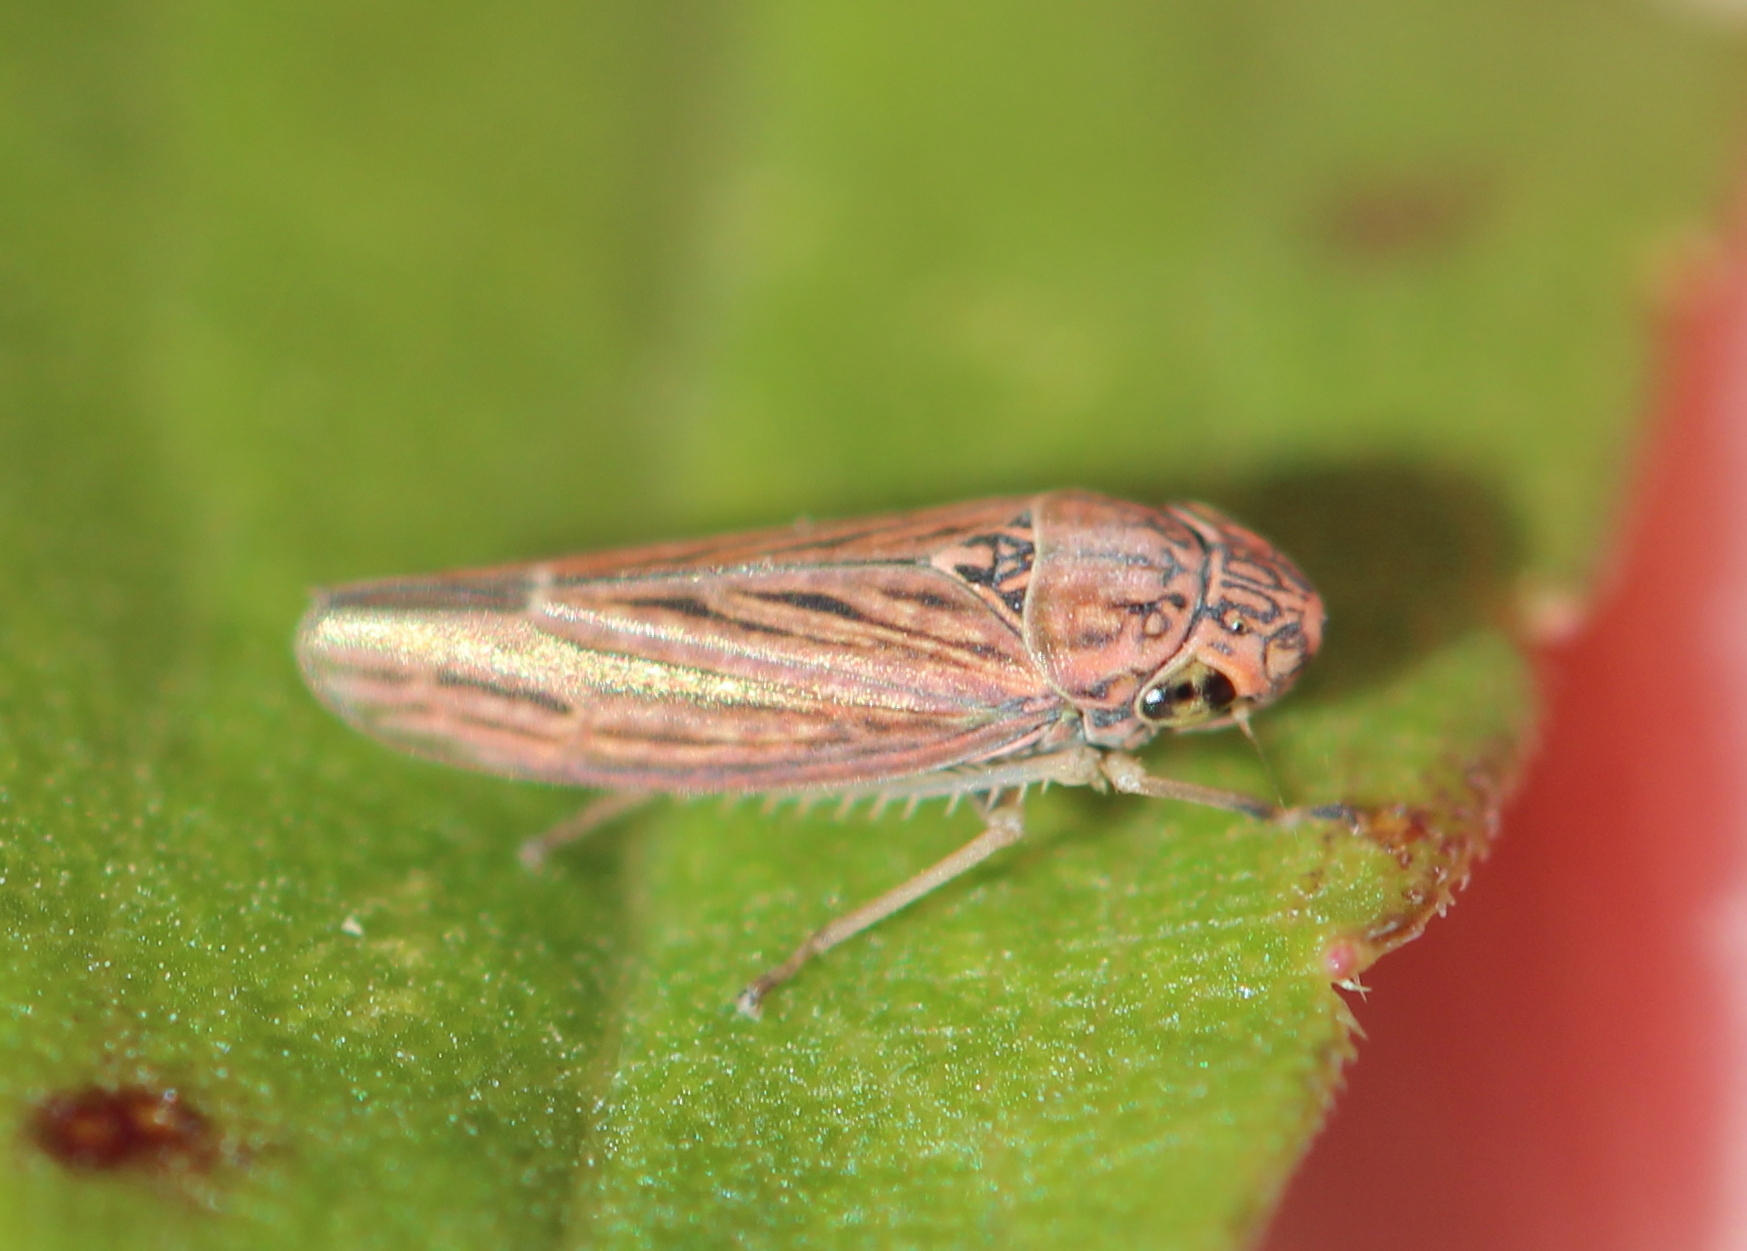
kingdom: Animalia
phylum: Arthropoda
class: Insecta
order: Hemiptera
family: Cicadellidae
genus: Neokolla
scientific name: Neokolla hieroglyphica
